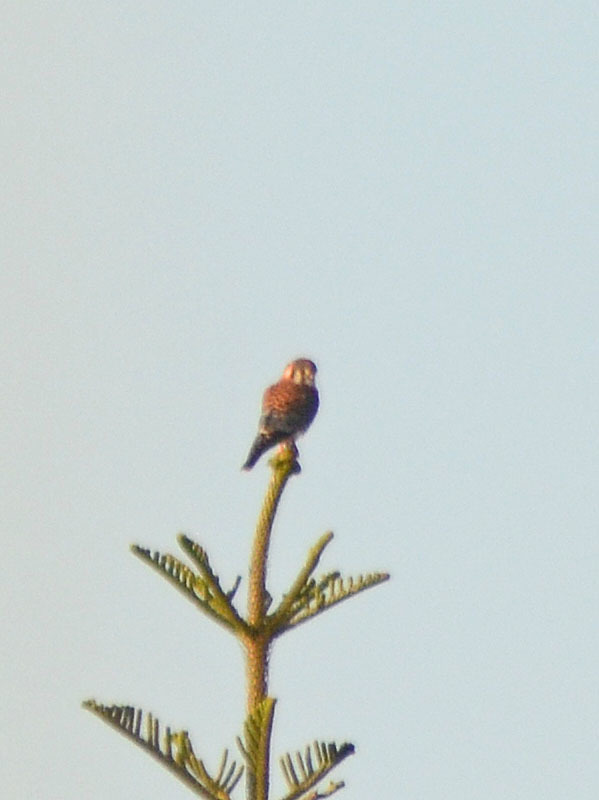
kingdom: Animalia
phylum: Chordata
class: Aves
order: Falconiformes
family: Falconidae
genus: Falco
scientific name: Falco sparverius
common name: American kestrel
